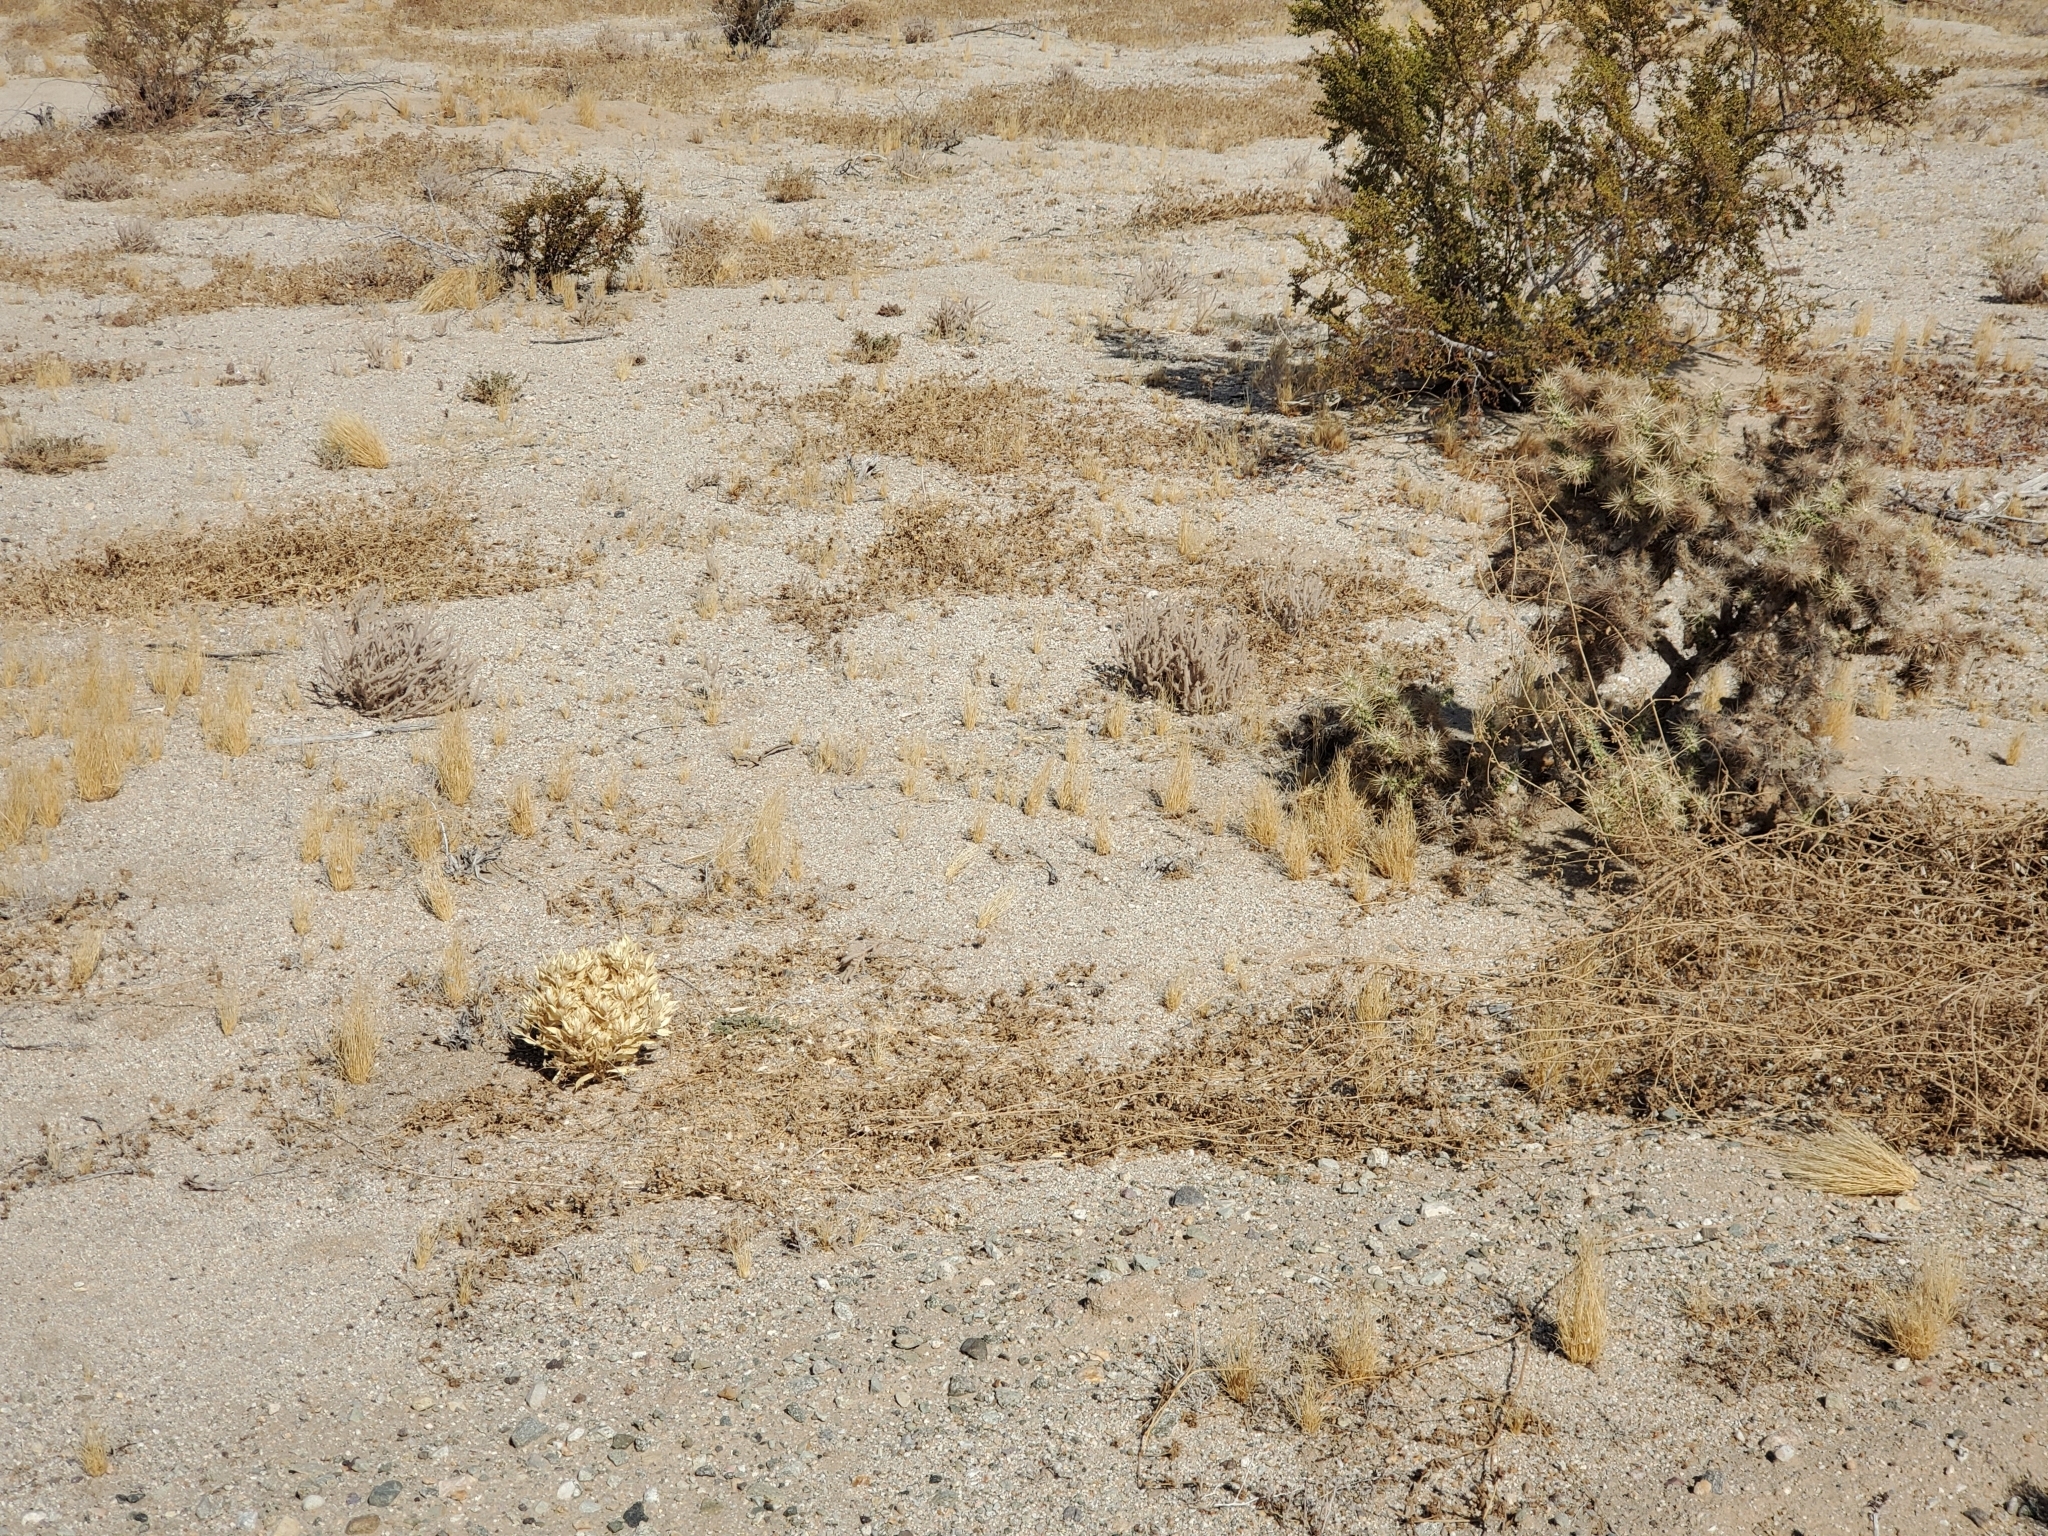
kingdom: Plantae
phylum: Tracheophyta
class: Magnoliopsida
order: Malpighiales
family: Euphorbiaceae
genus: Stillingia
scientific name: Stillingia spinulosa
